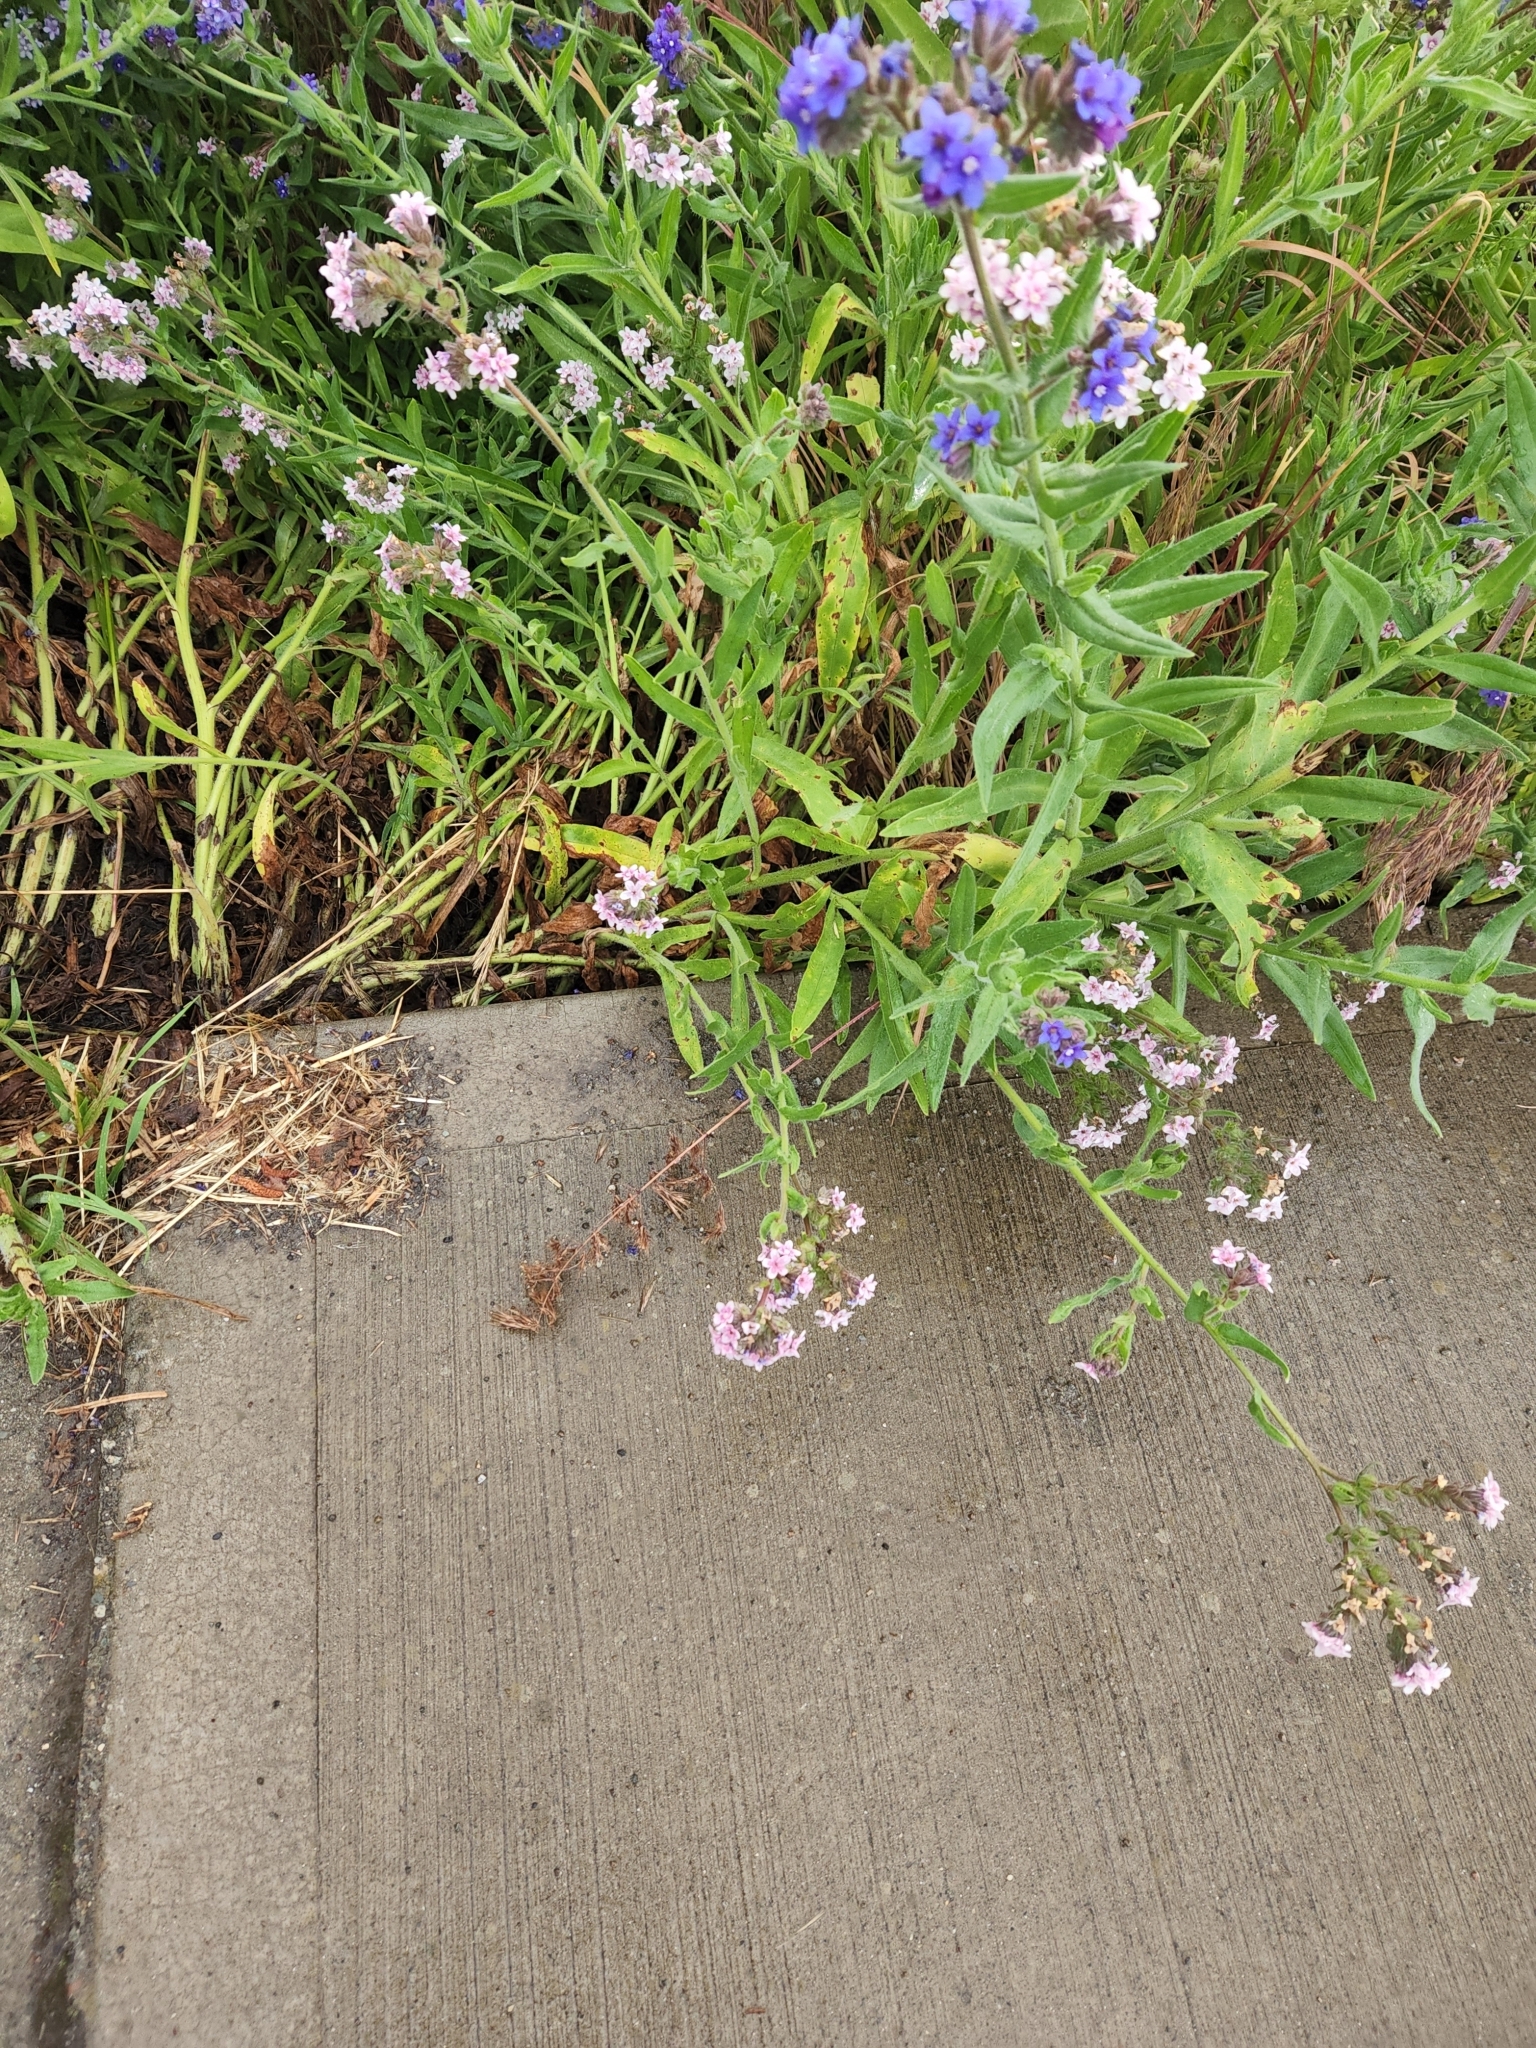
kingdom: Plantae
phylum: Tracheophyta
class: Magnoliopsida
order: Boraginales
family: Boraginaceae
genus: Anchusa
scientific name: Anchusa officinalis
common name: Alkanet
